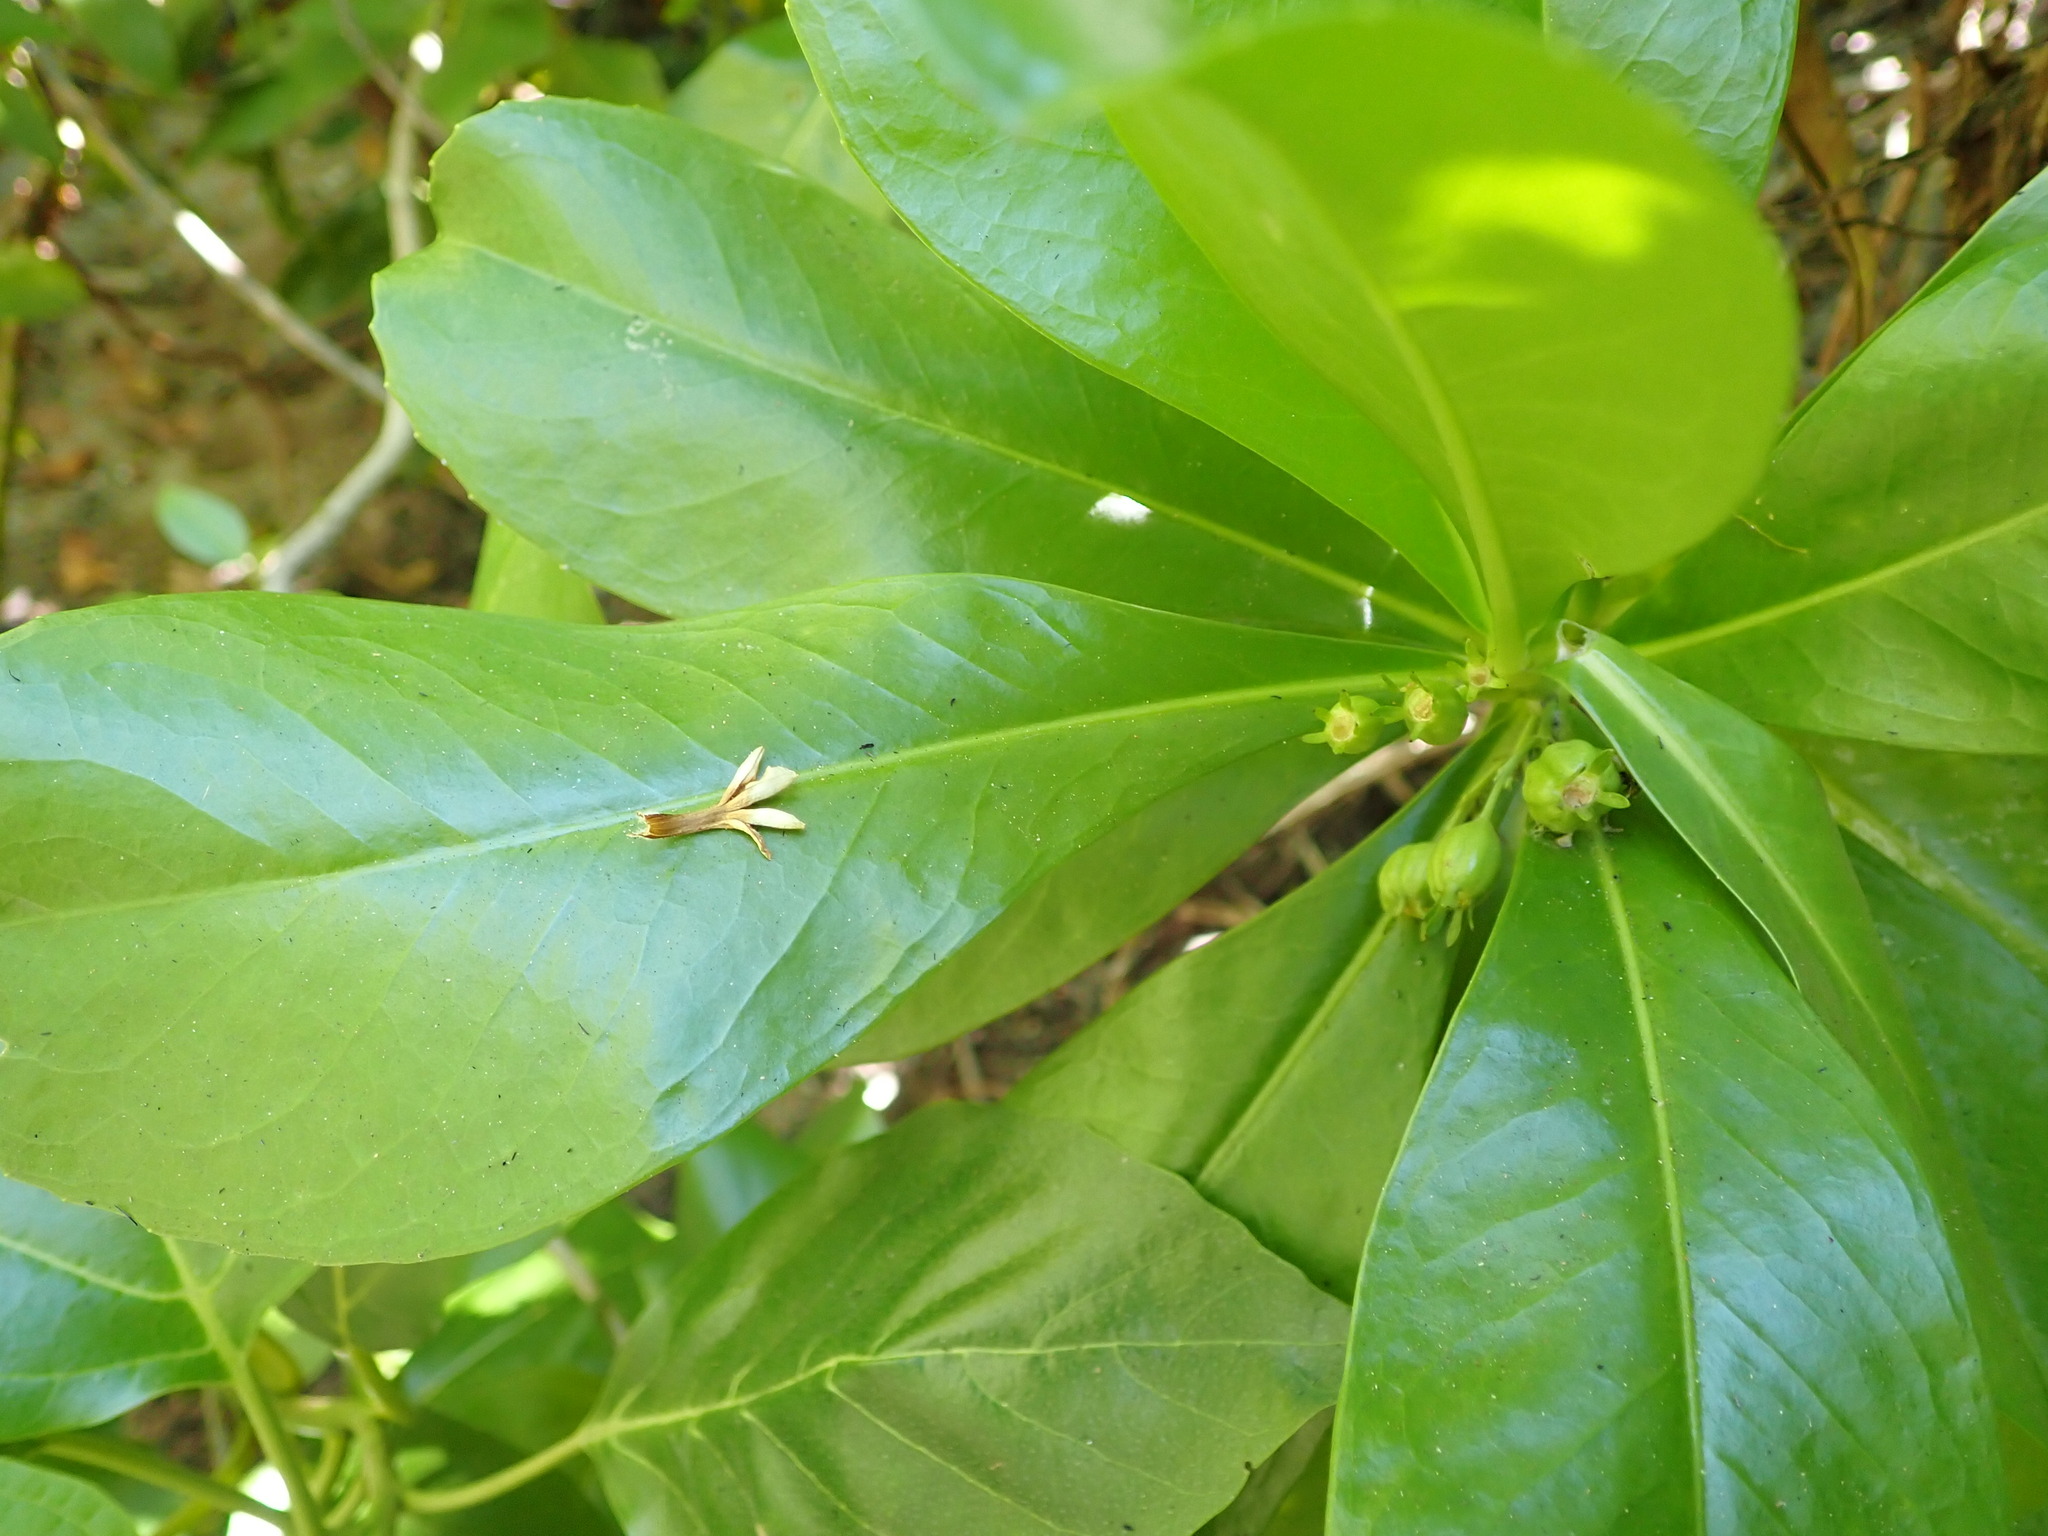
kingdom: Plantae
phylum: Tracheophyta
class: Magnoliopsida
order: Asterales
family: Goodeniaceae
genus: Scaevola
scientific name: Scaevola taccada
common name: Sea lettucetree
